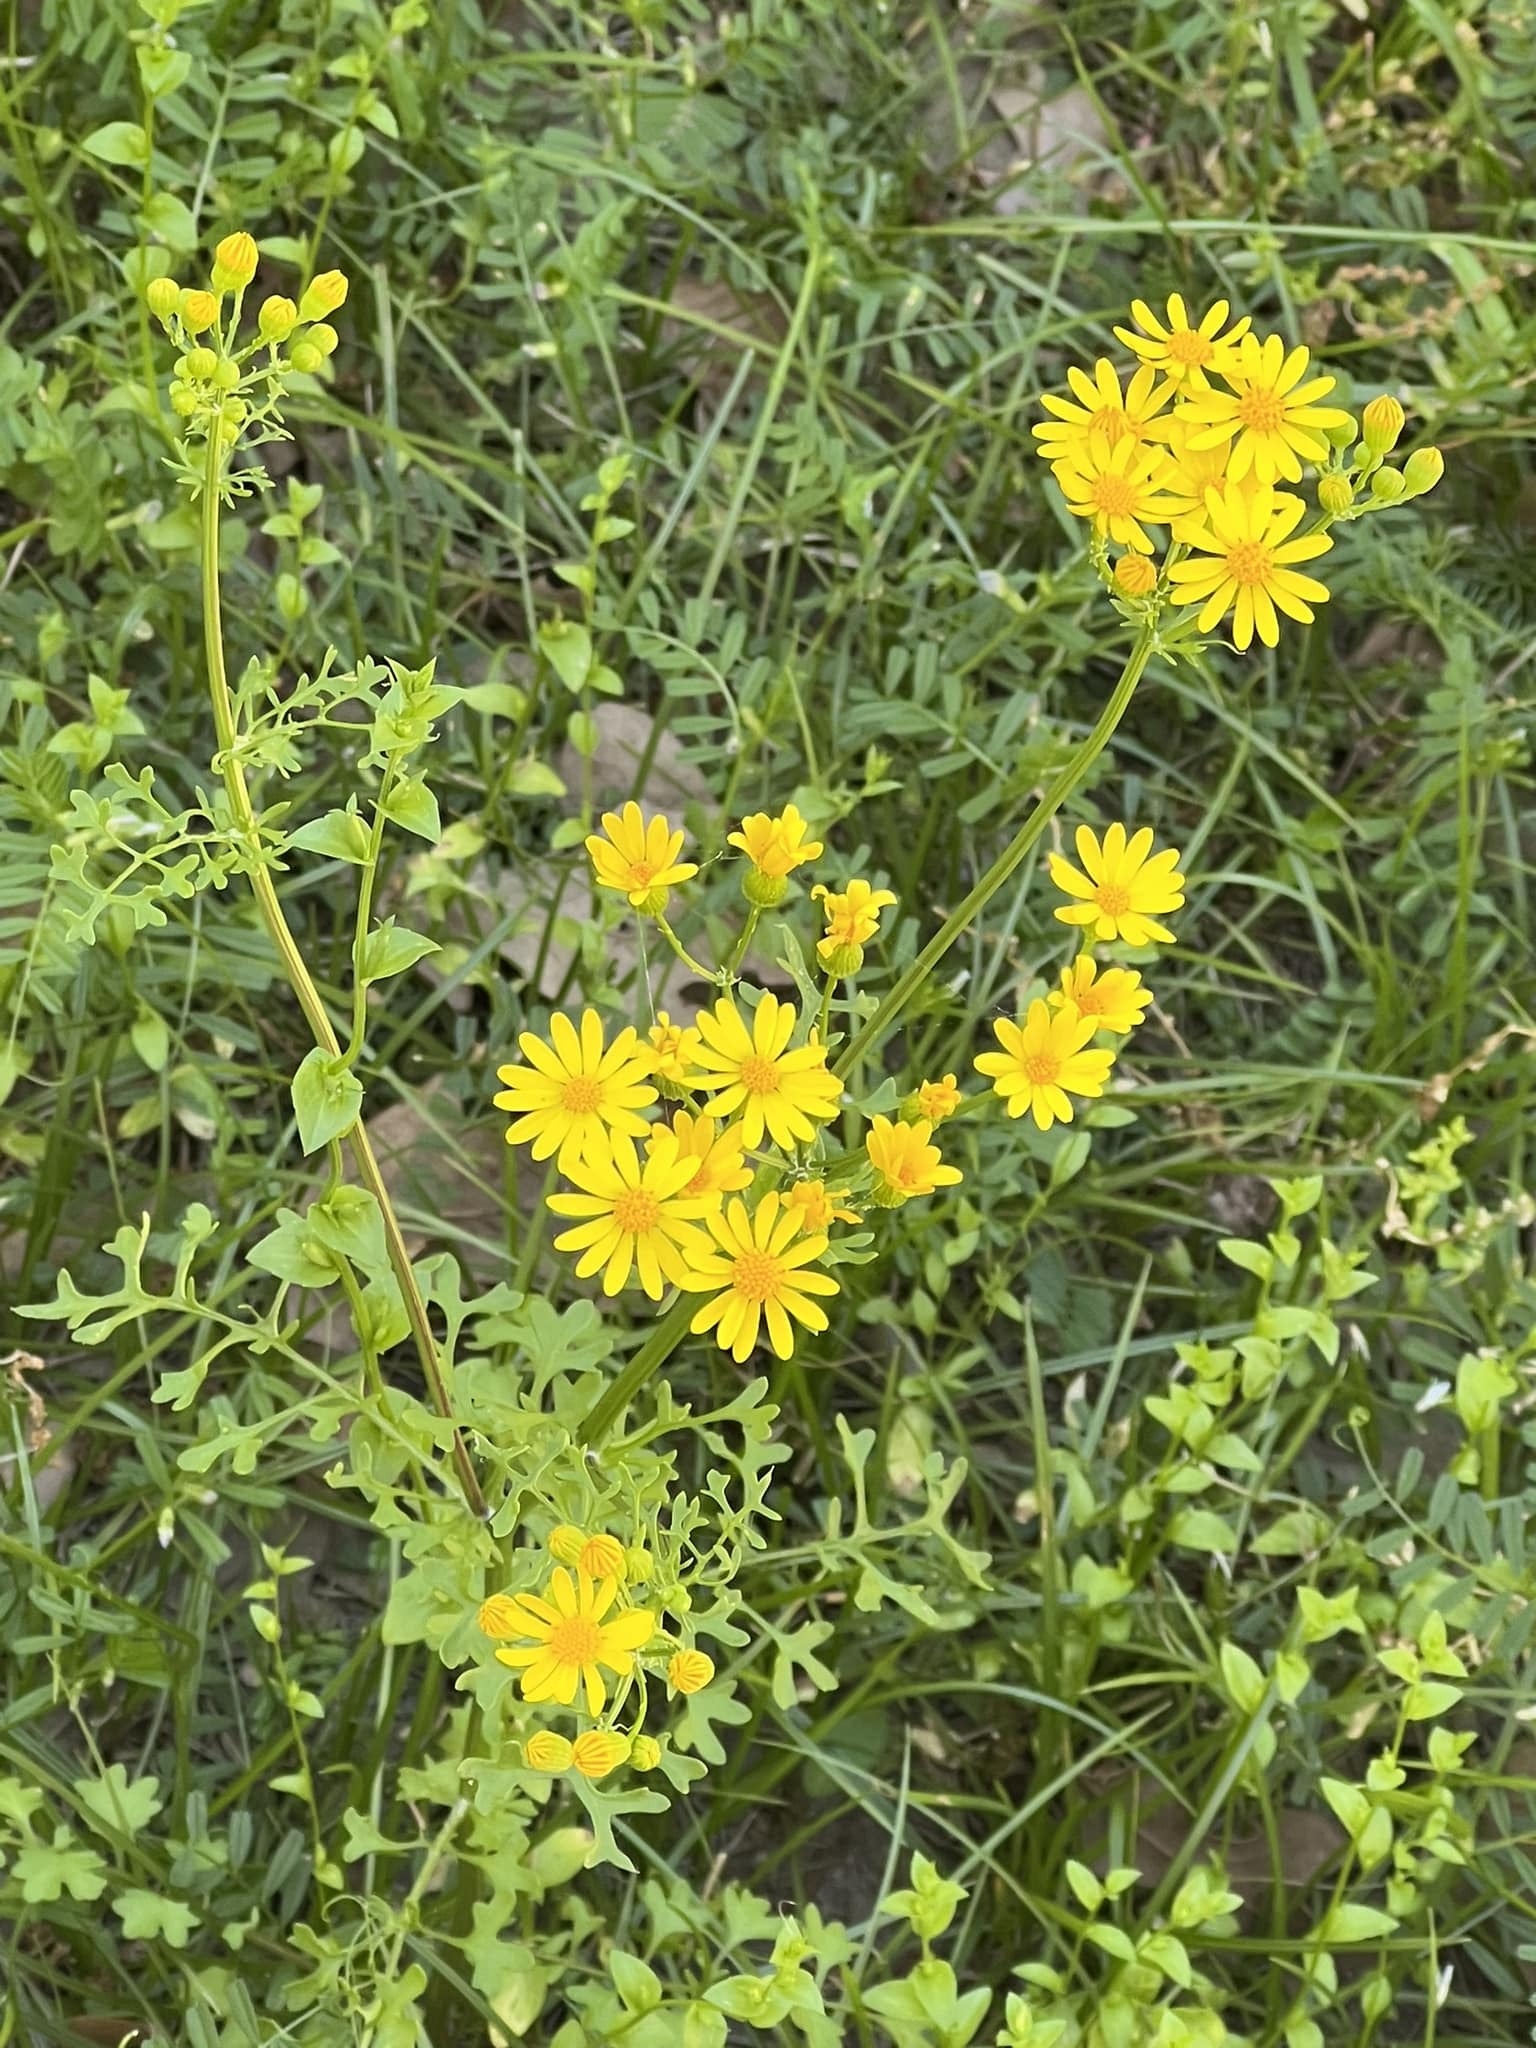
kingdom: Plantae
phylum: Tracheophyta
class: Magnoliopsida
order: Asterales
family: Asteraceae
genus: Packera
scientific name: Packera tampicana
